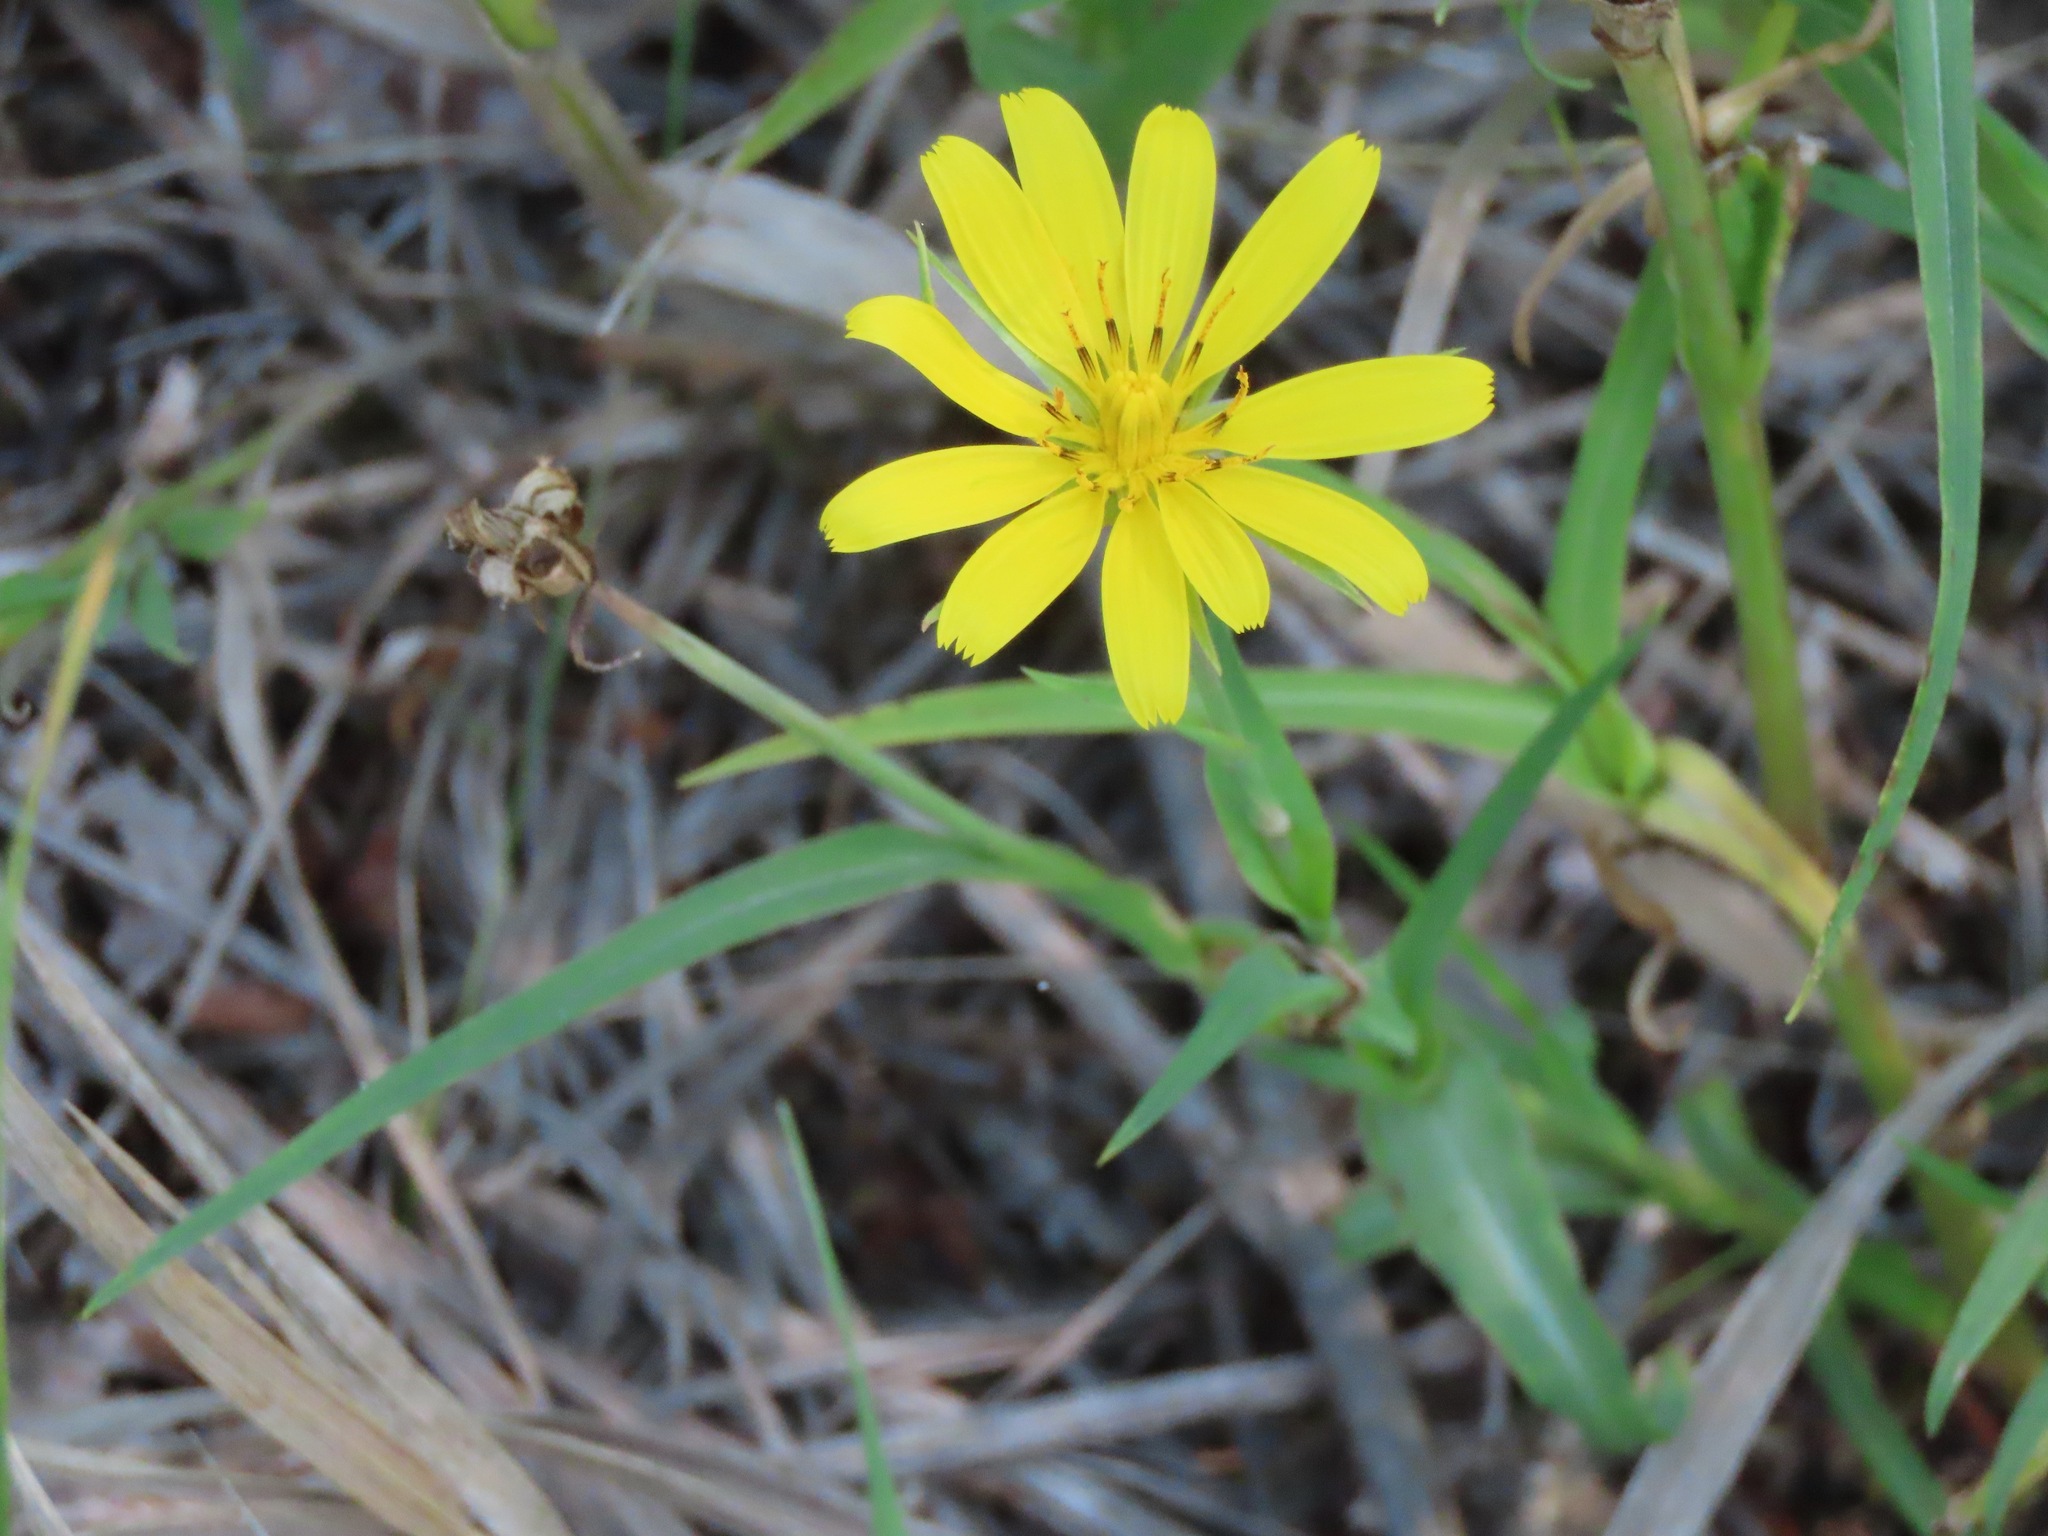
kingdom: Plantae
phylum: Tracheophyta
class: Magnoliopsida
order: Asterales
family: Asteraceae
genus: Tragopogon
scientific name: Tragopogon pratensis
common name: Goat's-beard
